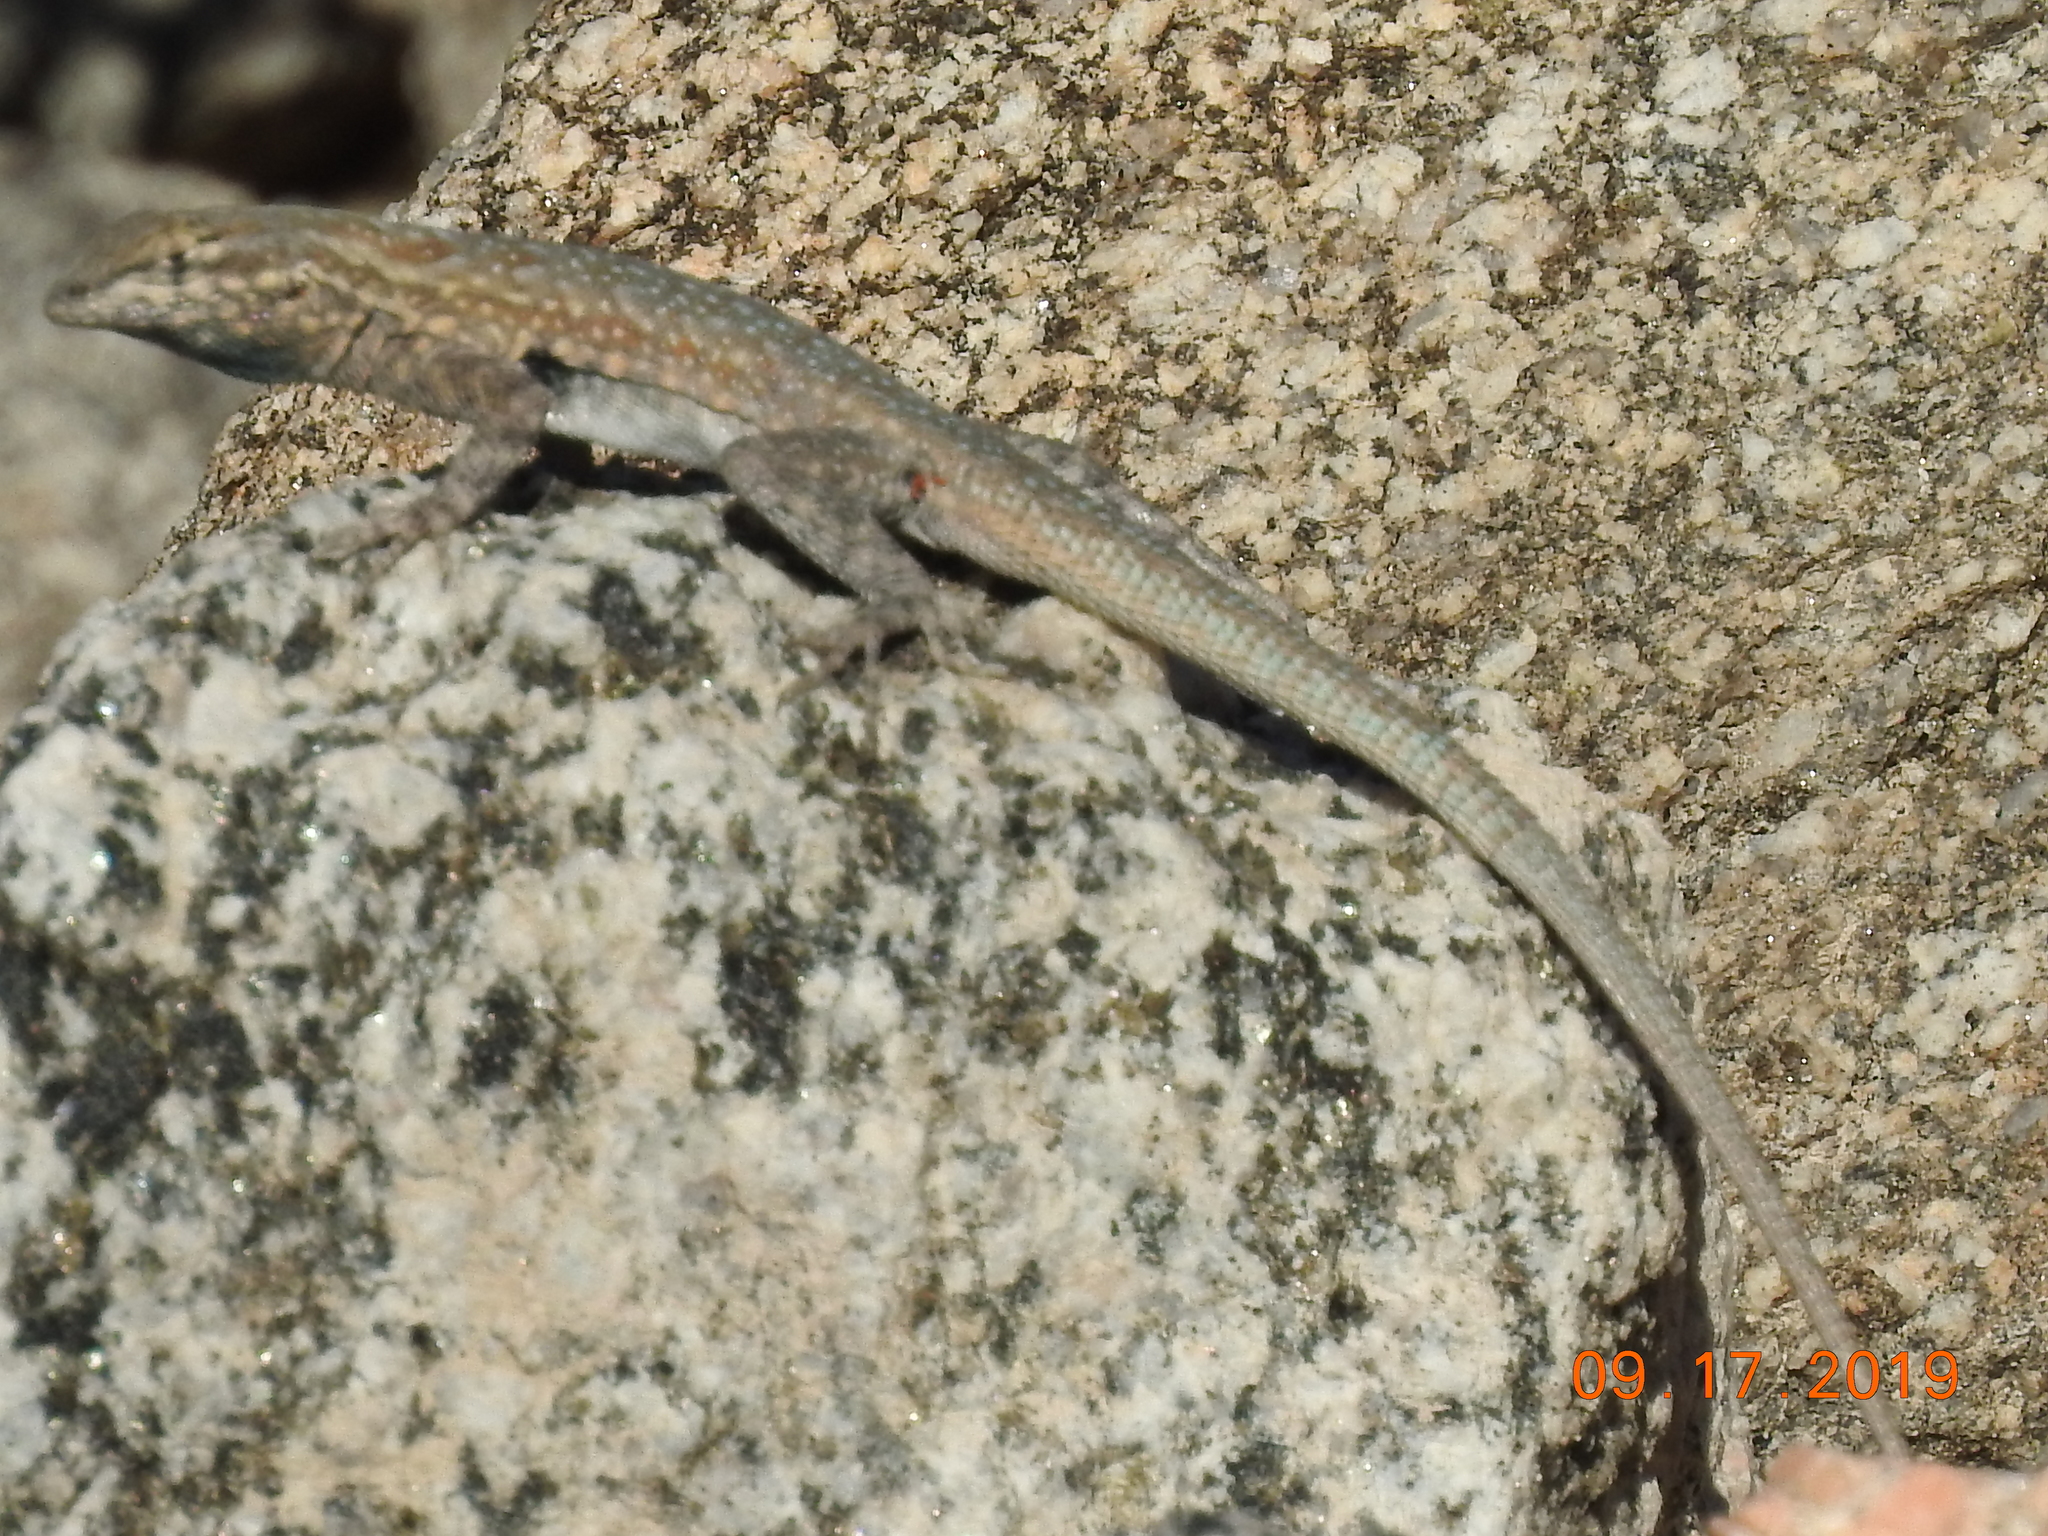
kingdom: Animalia
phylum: Chordata
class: Squamata
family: Phrynosomatidae
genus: Uta
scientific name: Uta stansburiana
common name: Side-blotched lizard
